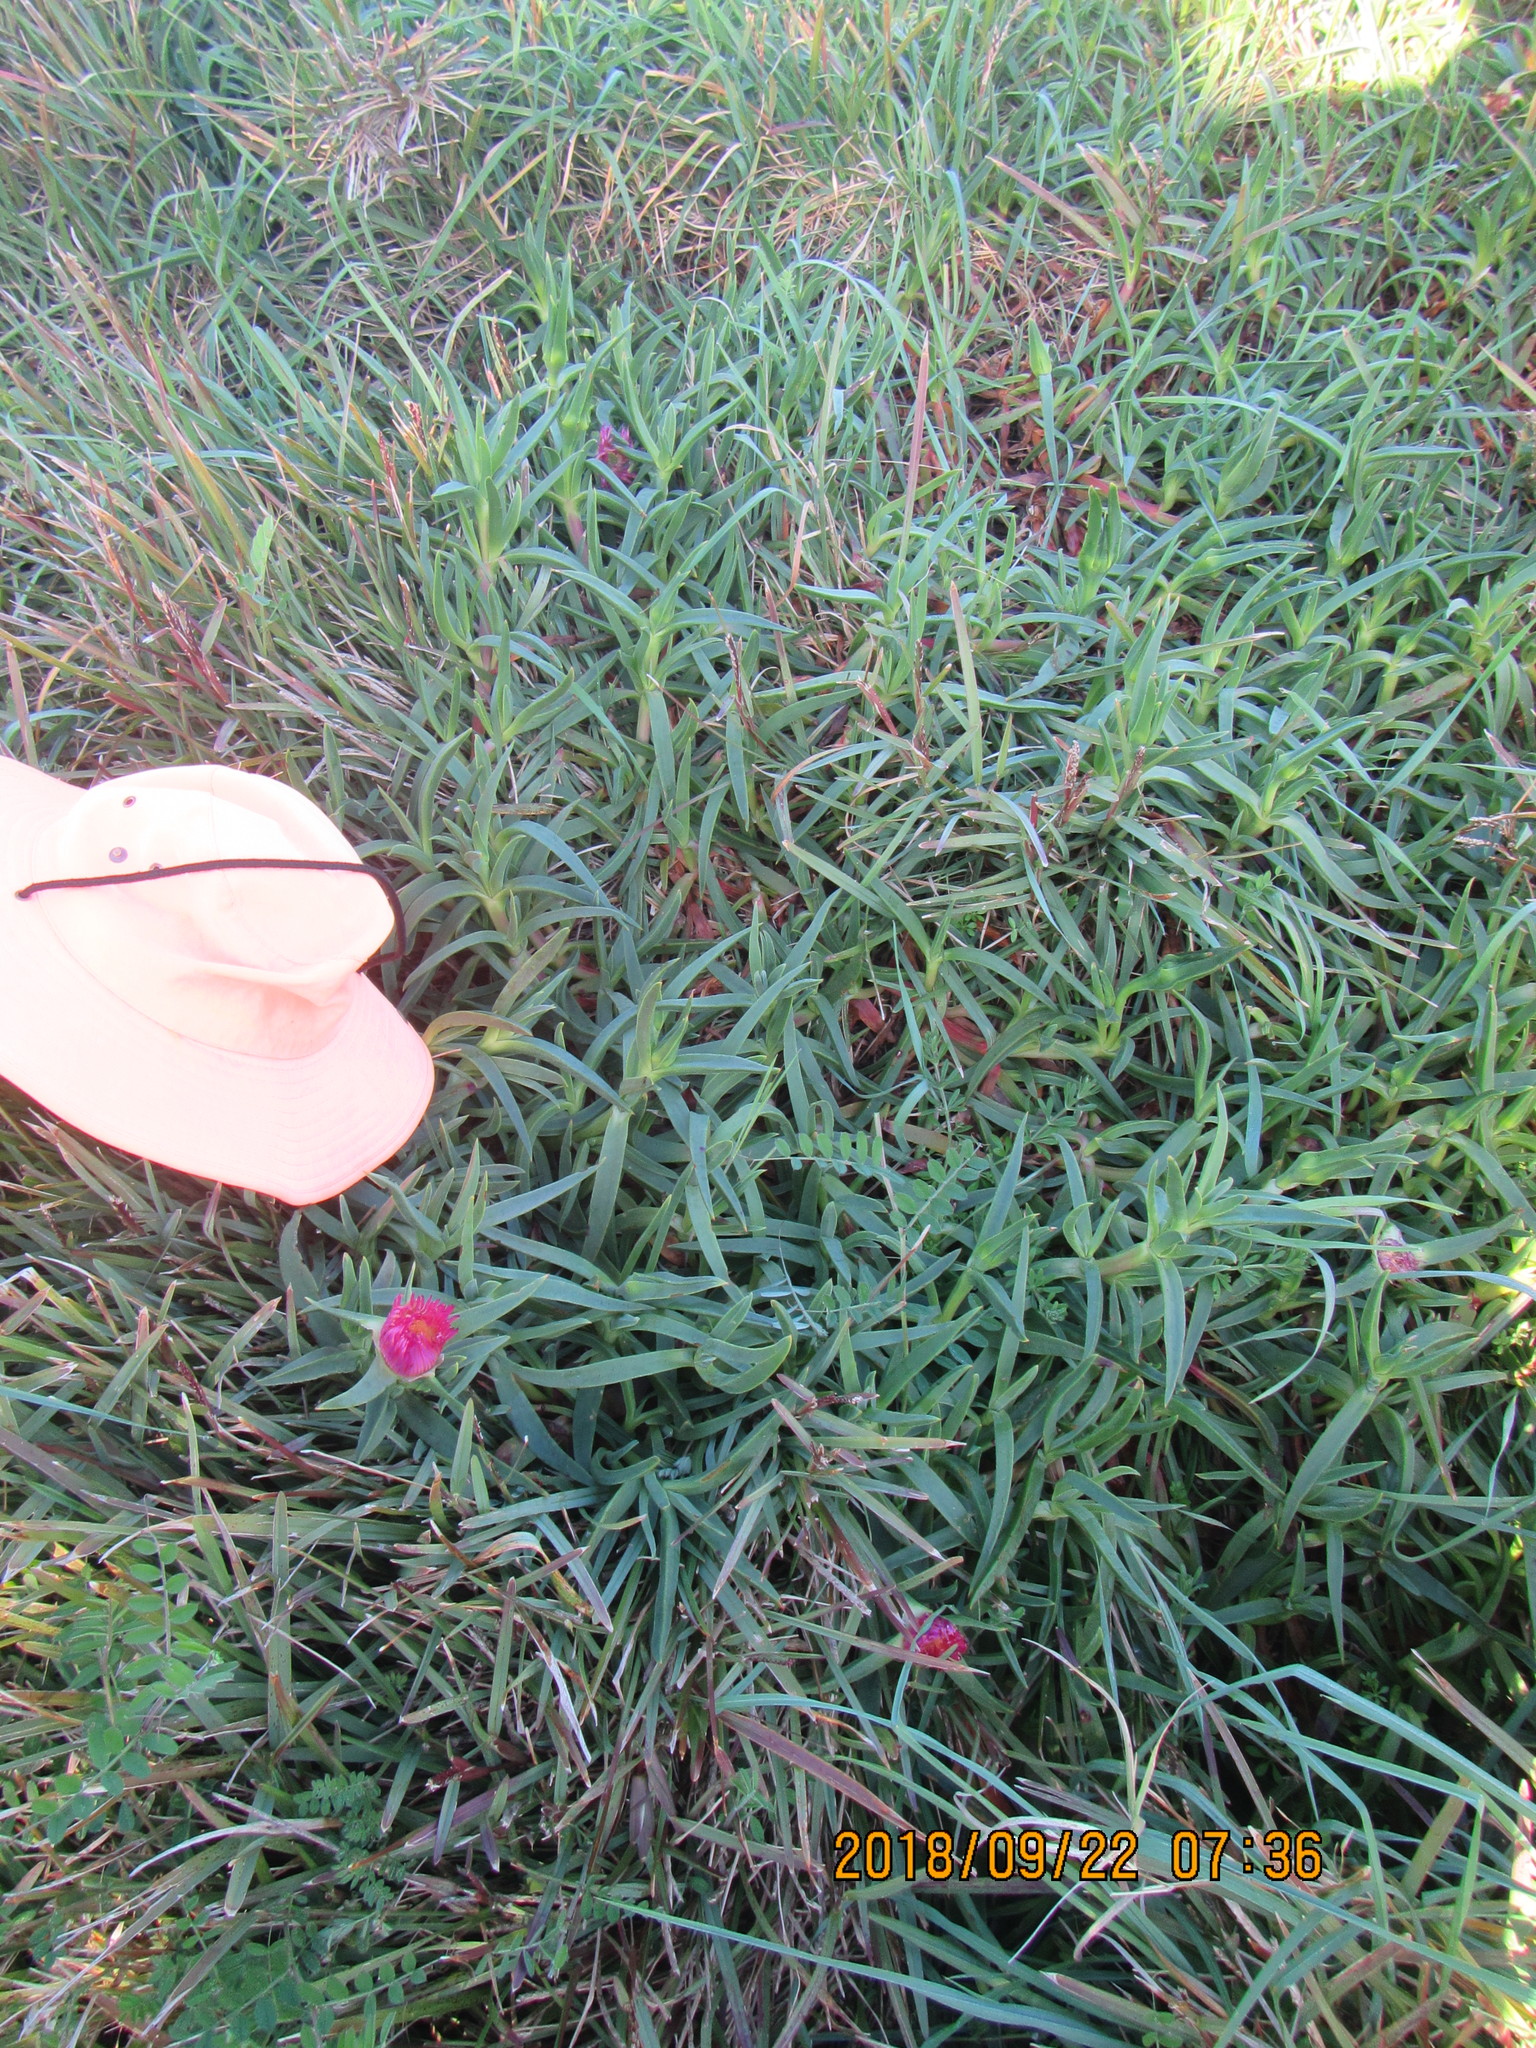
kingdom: Plantae
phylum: Tracheophyta
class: Magnoliopsida
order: Caryophyllales
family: Aizoaceae
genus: Carpobrotus
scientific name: Carpobrotus chilensis
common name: Sea fig
